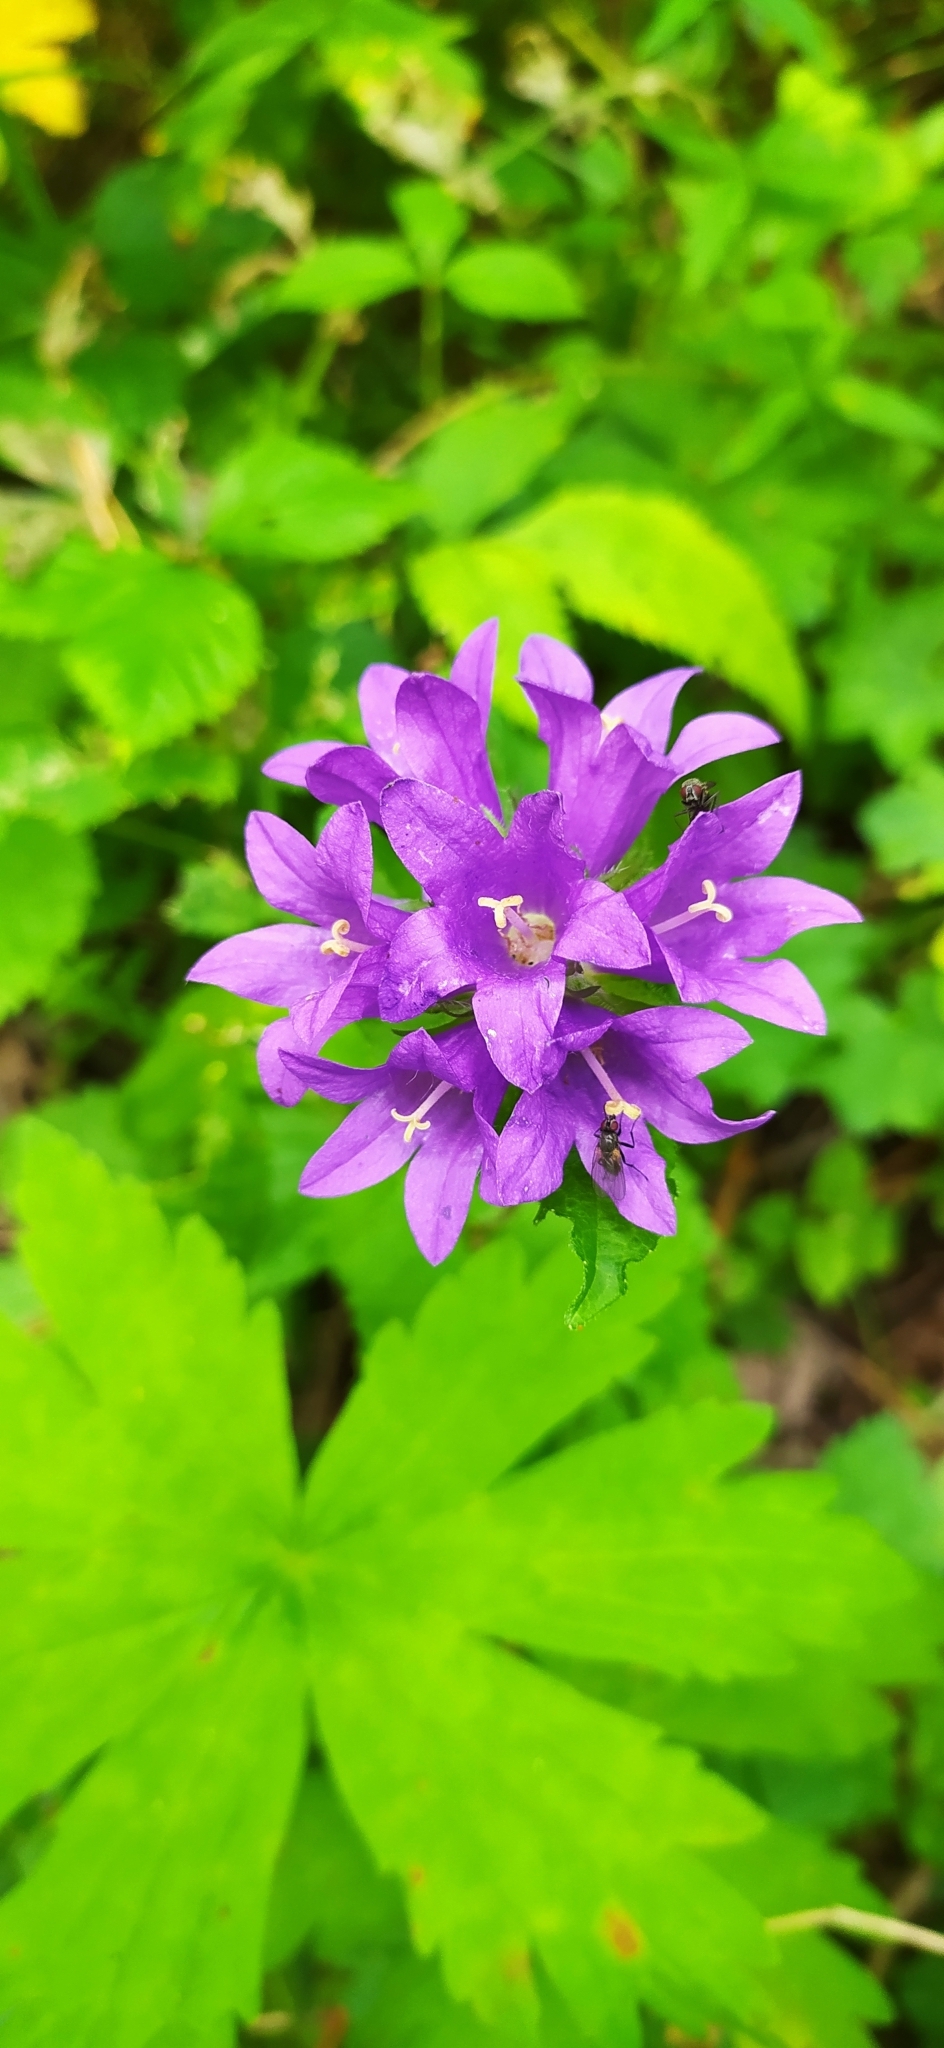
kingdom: Plantae
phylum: Tracheophyta
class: Magnoliopsida
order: Asterales
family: Campanulaceae
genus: Campanula
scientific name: Campanula glomerata
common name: Clustered bellflower
